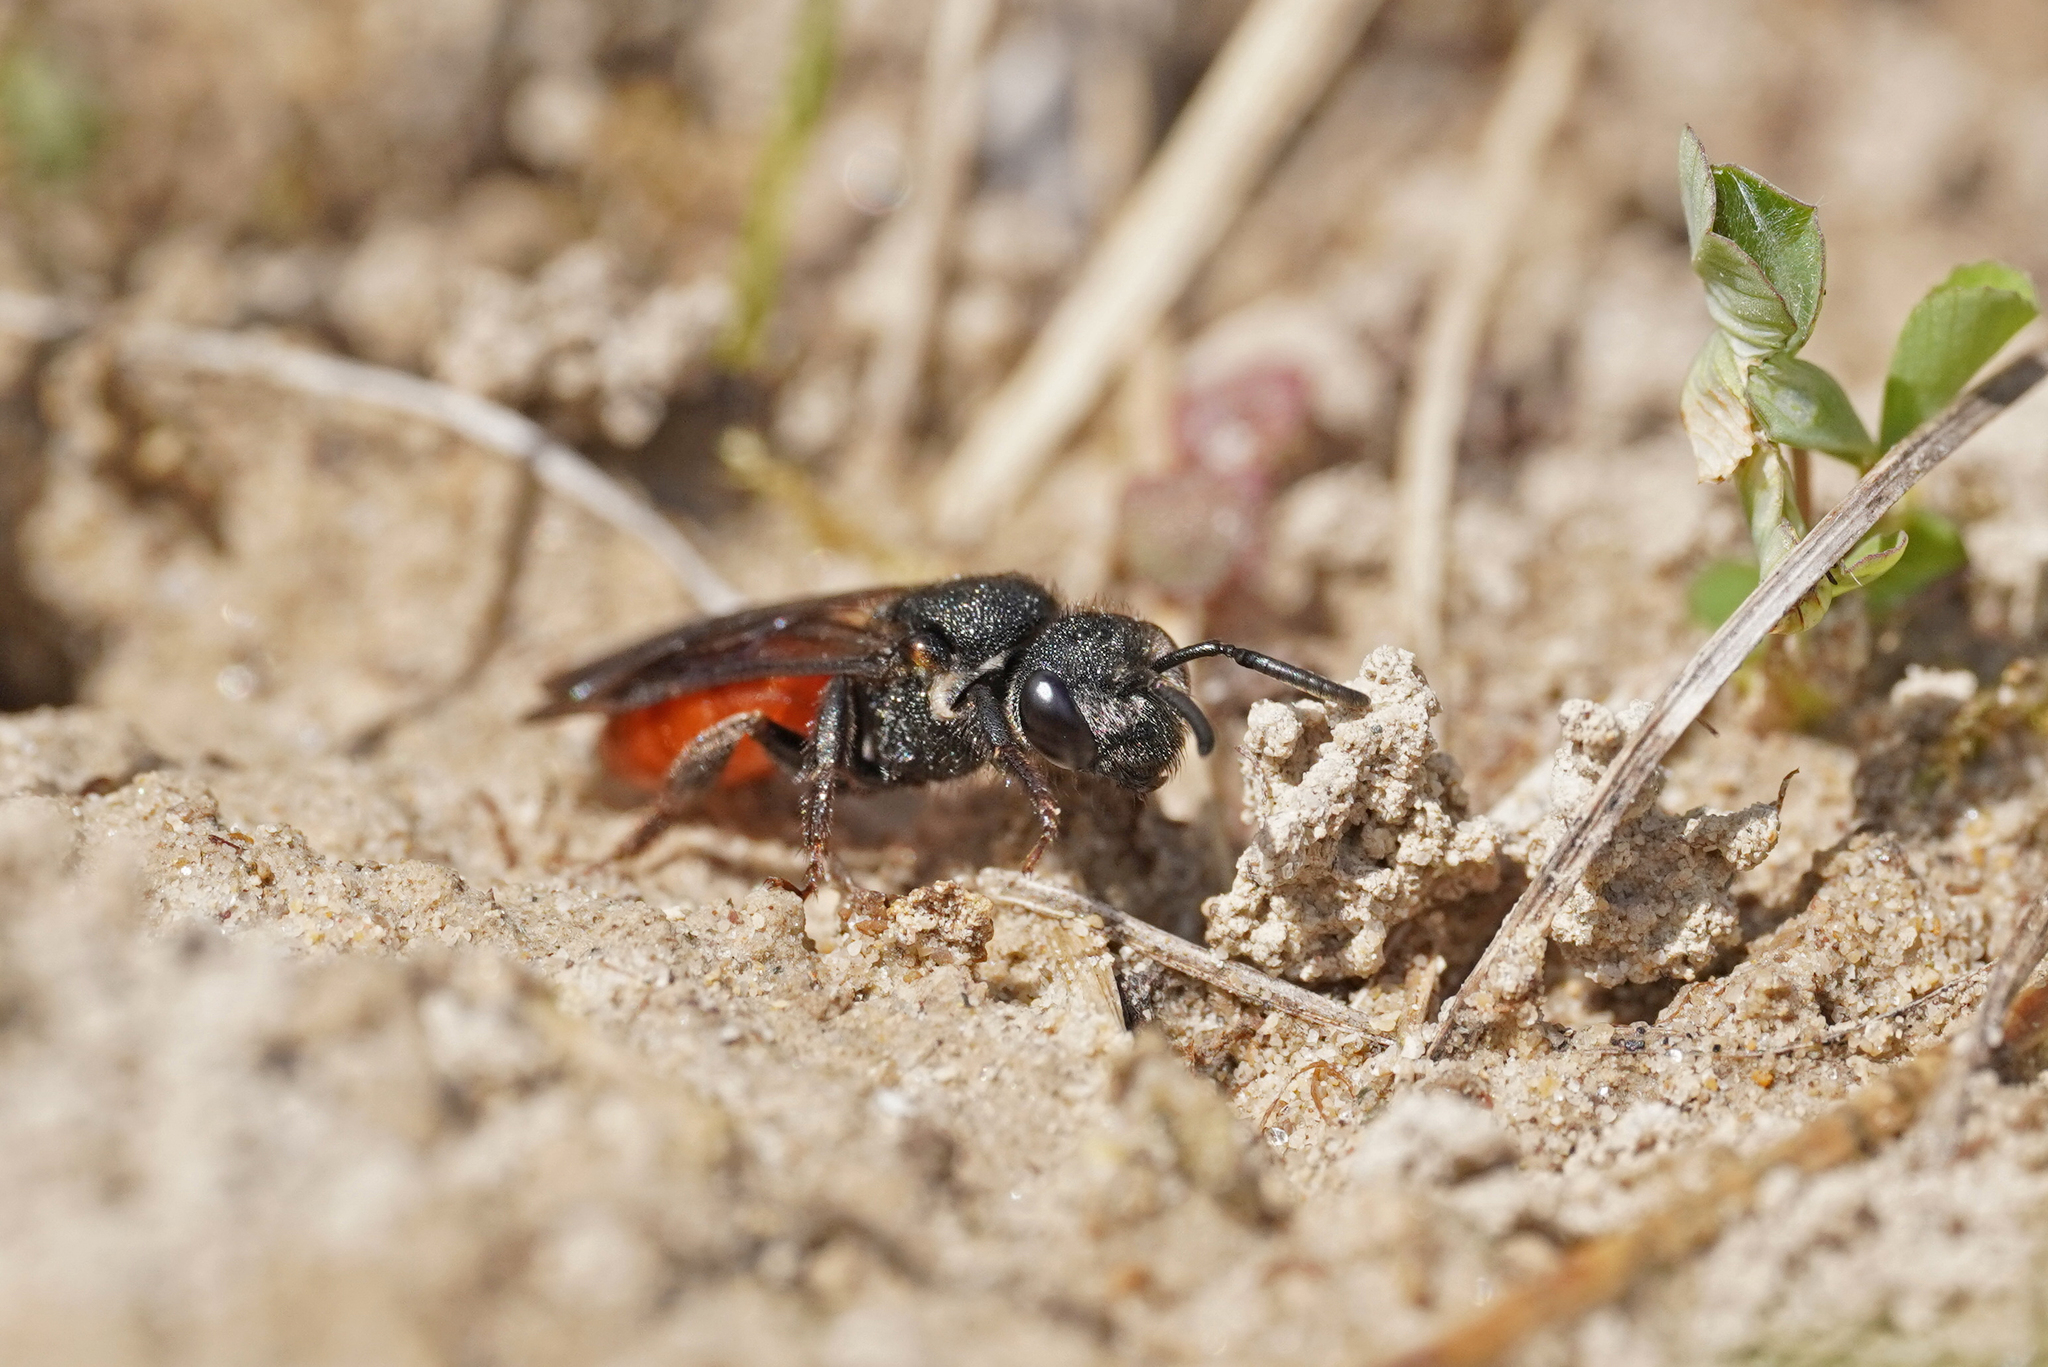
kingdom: Animalia
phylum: Arthropoda
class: Insecta
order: Hymenoptera
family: Halictidae
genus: Sphecodes
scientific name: Sphecodes albilabris
